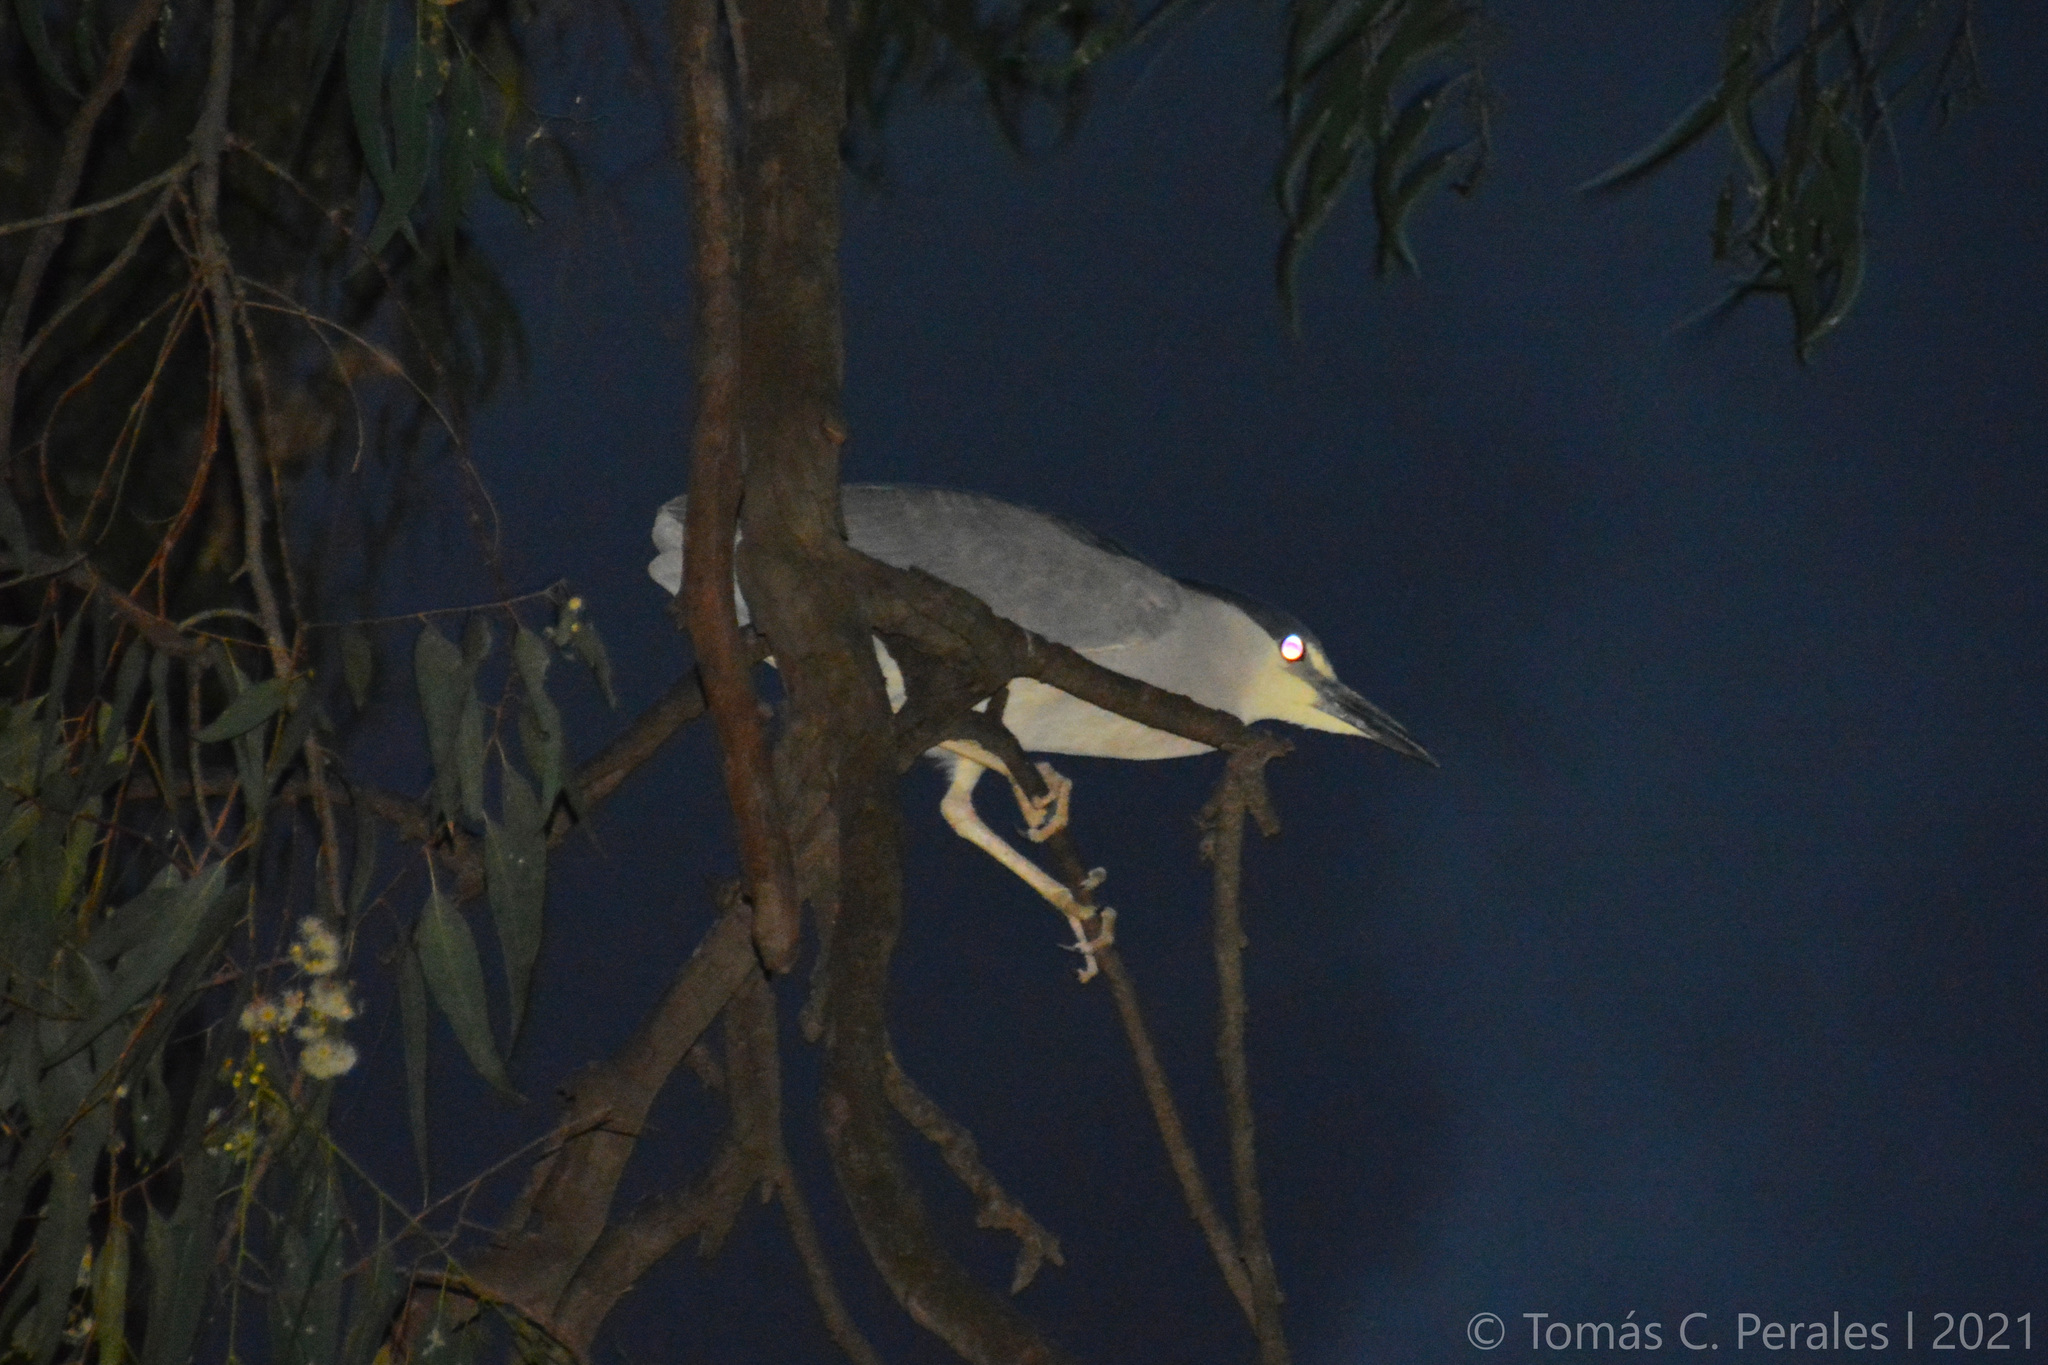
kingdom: Animalia
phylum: Chordata
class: Aves
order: Pelecaniformes
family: Ardeidae
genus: Nycticorax
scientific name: Nycticorax nycticorax
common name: Black-crowned night heron
